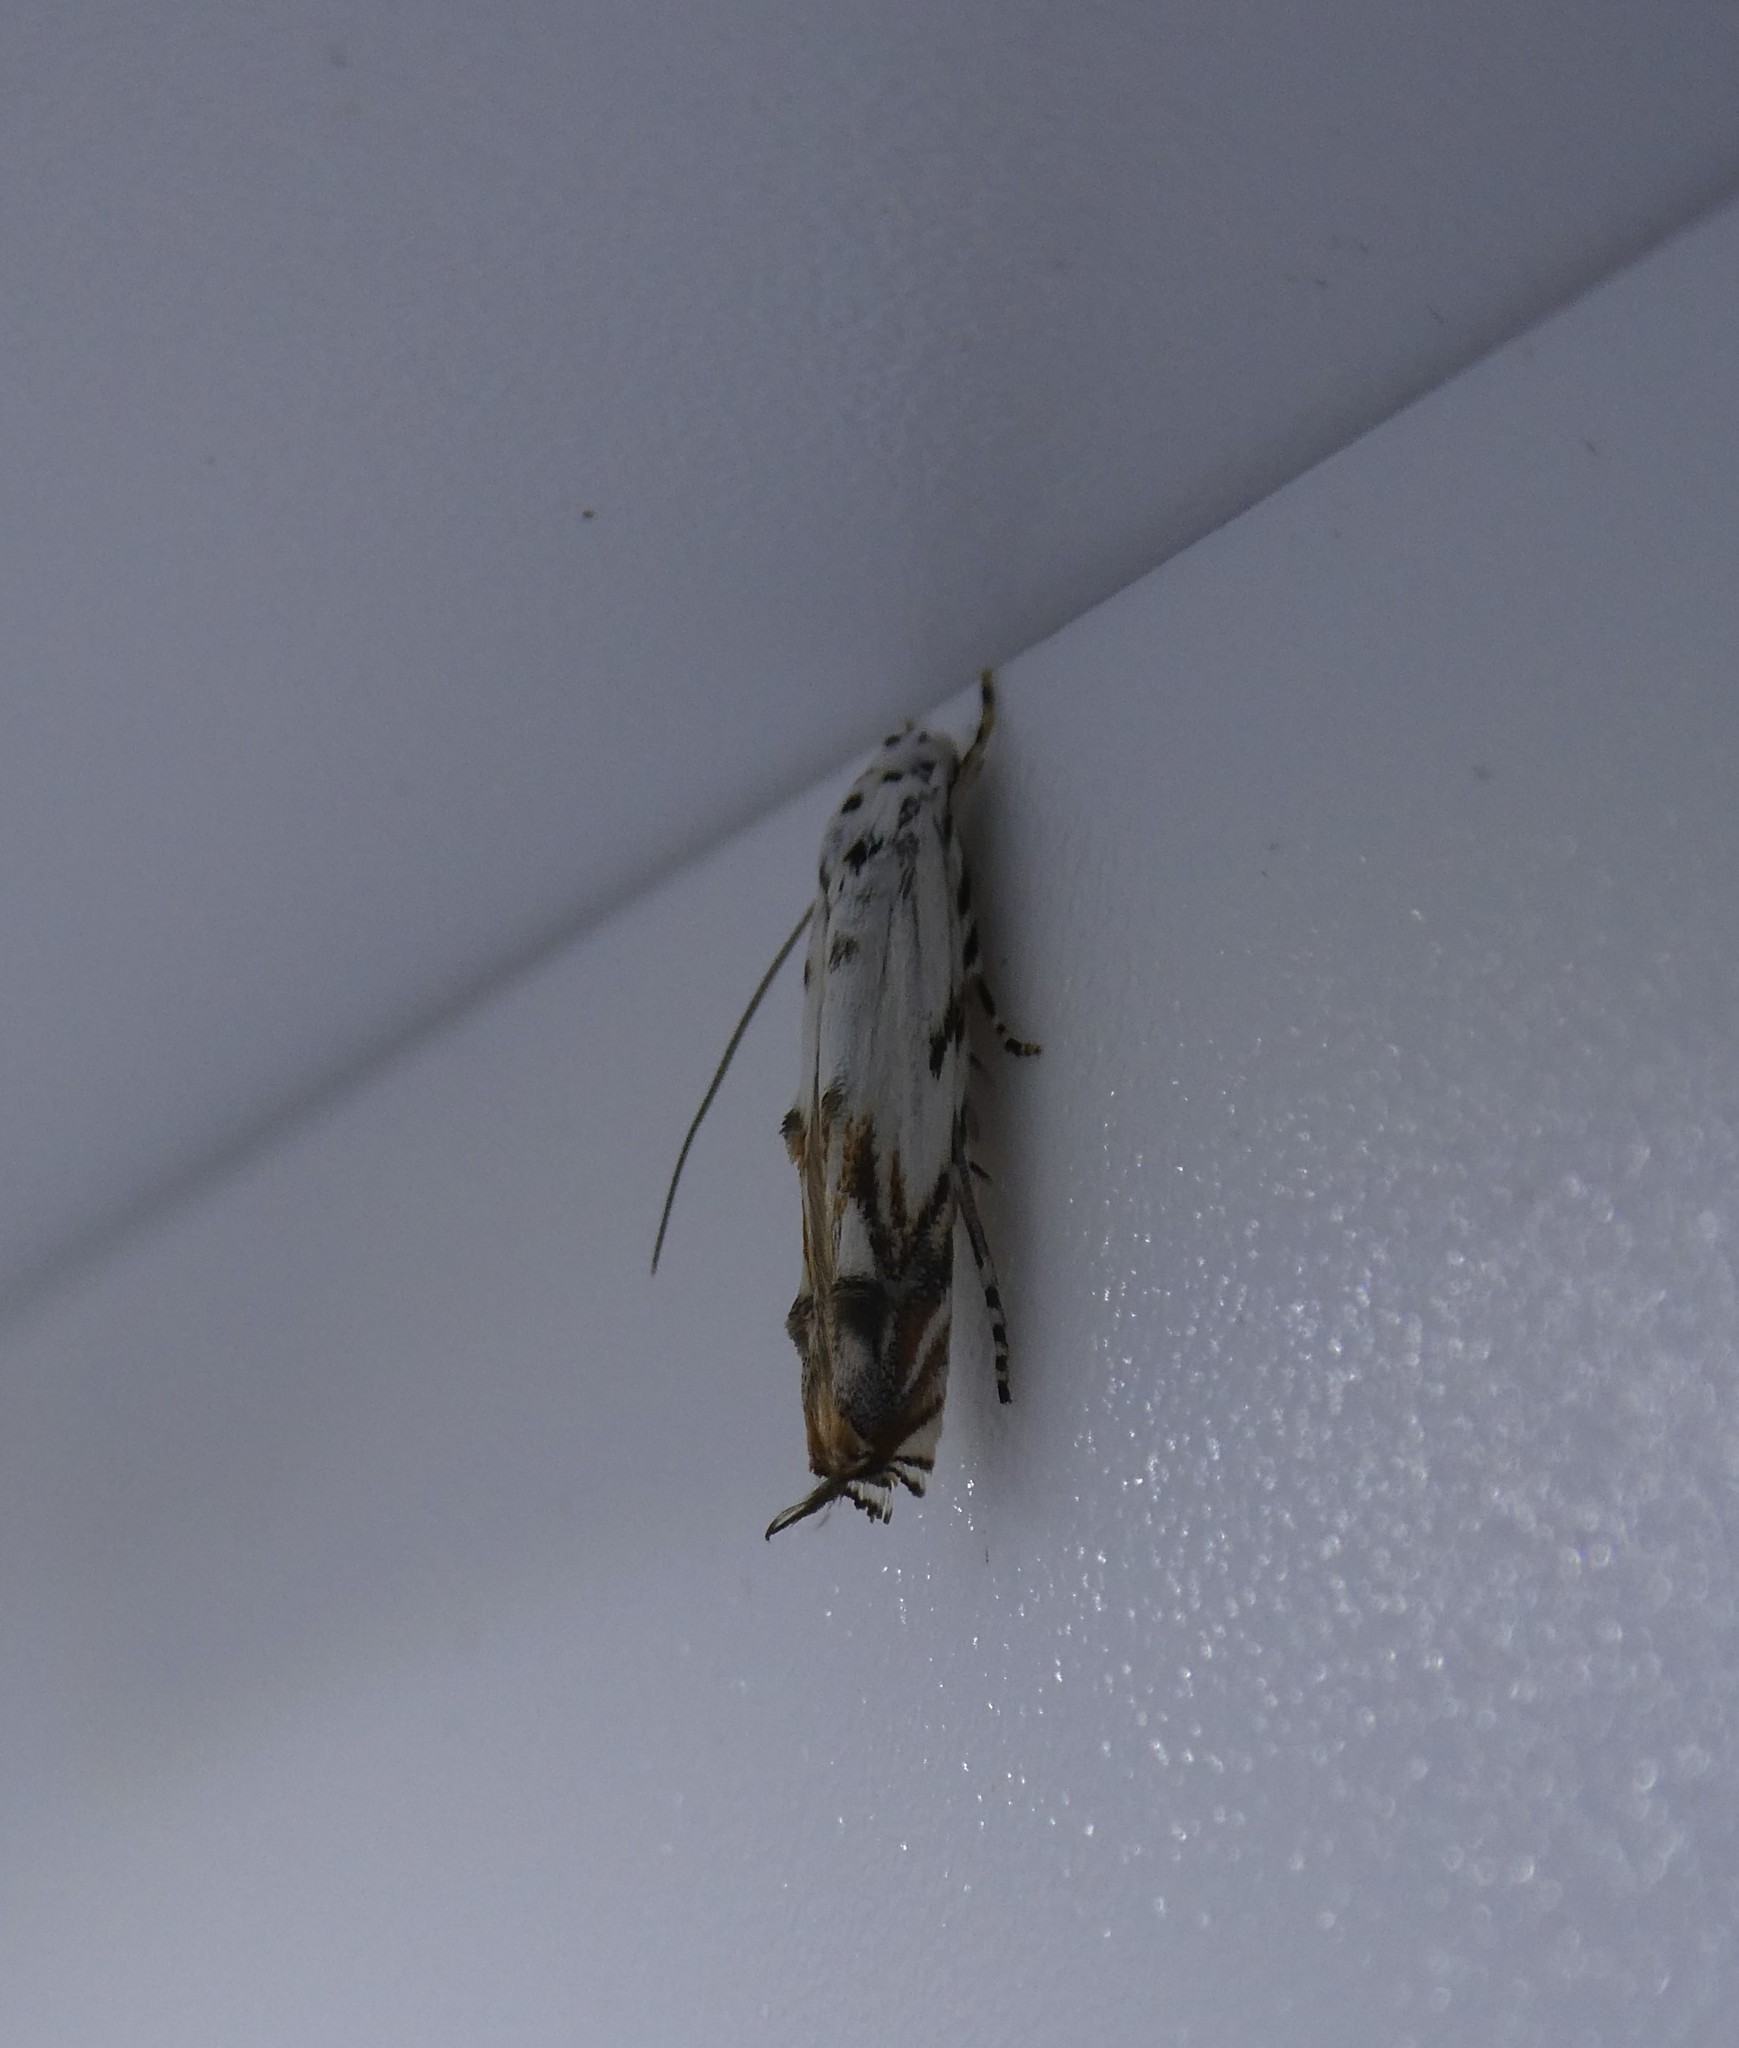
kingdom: Animalia
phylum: Arthropoda
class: Insecta
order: Lepidoptera
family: Momphidae
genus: Mompha
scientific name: Mompha eloisella
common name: Red-streaked mompha moth
